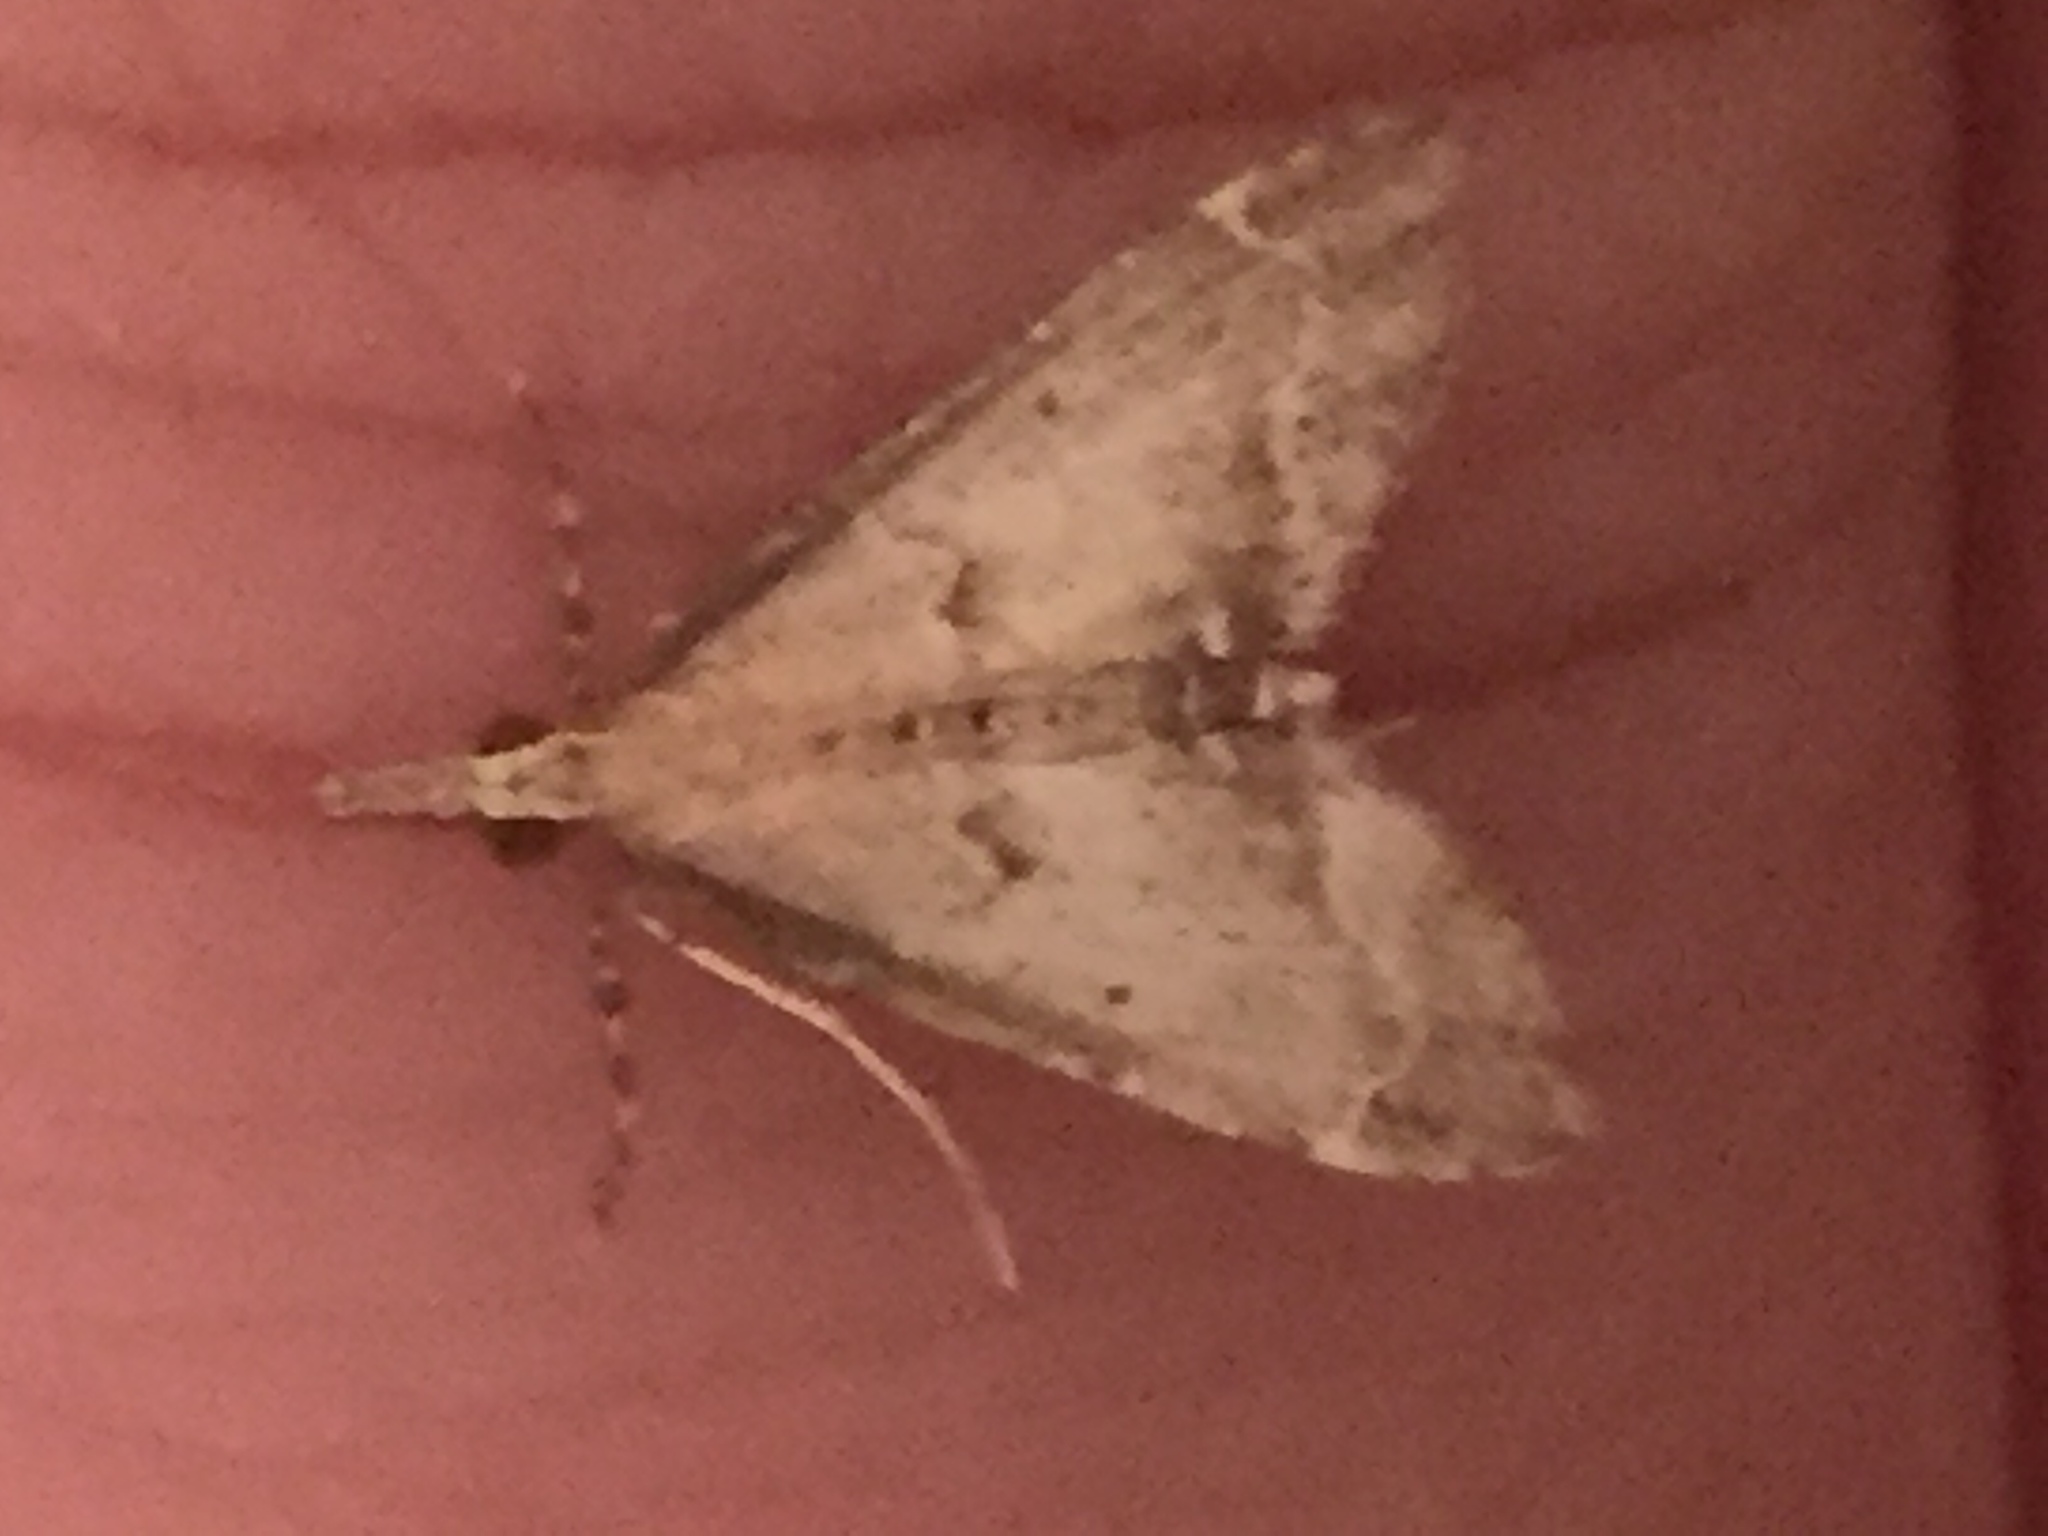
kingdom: Animalia
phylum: Arthropoda
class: Insecta
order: Lepidoptera
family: Crambidae
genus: Diplopseustis
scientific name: Diplopseustis perieresalis
